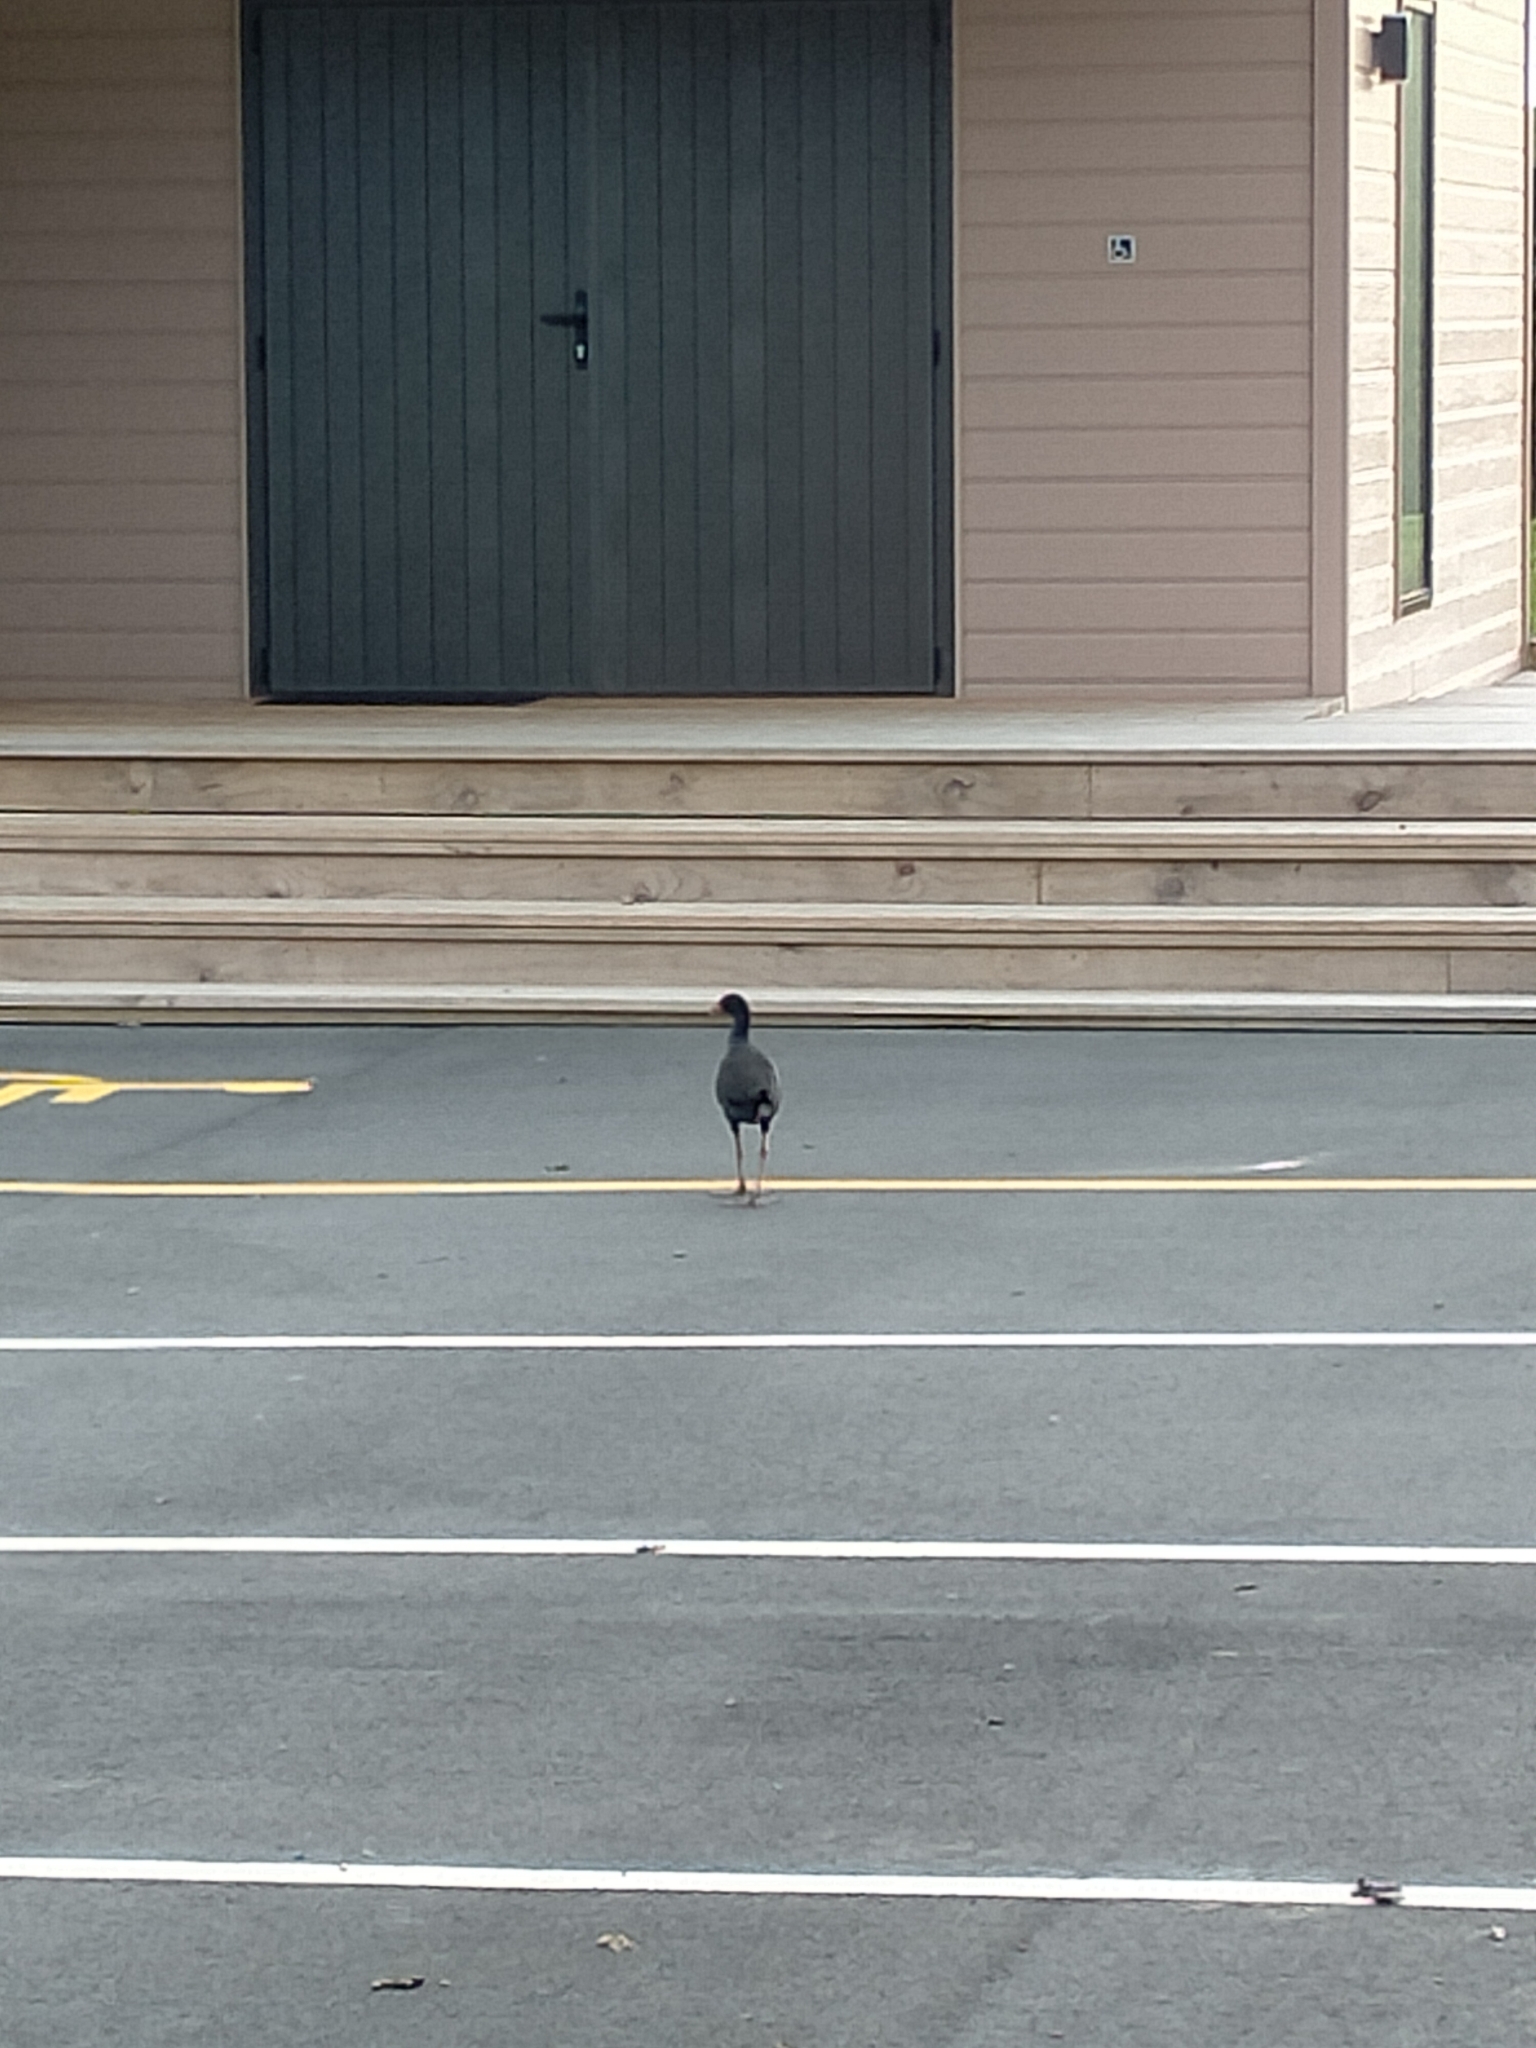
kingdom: Animalia
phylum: Chordata
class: Aves
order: Gruiformes
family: Rallidae
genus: Porphyrio
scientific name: Porphyrio melanotus
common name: Australasian swamphen
